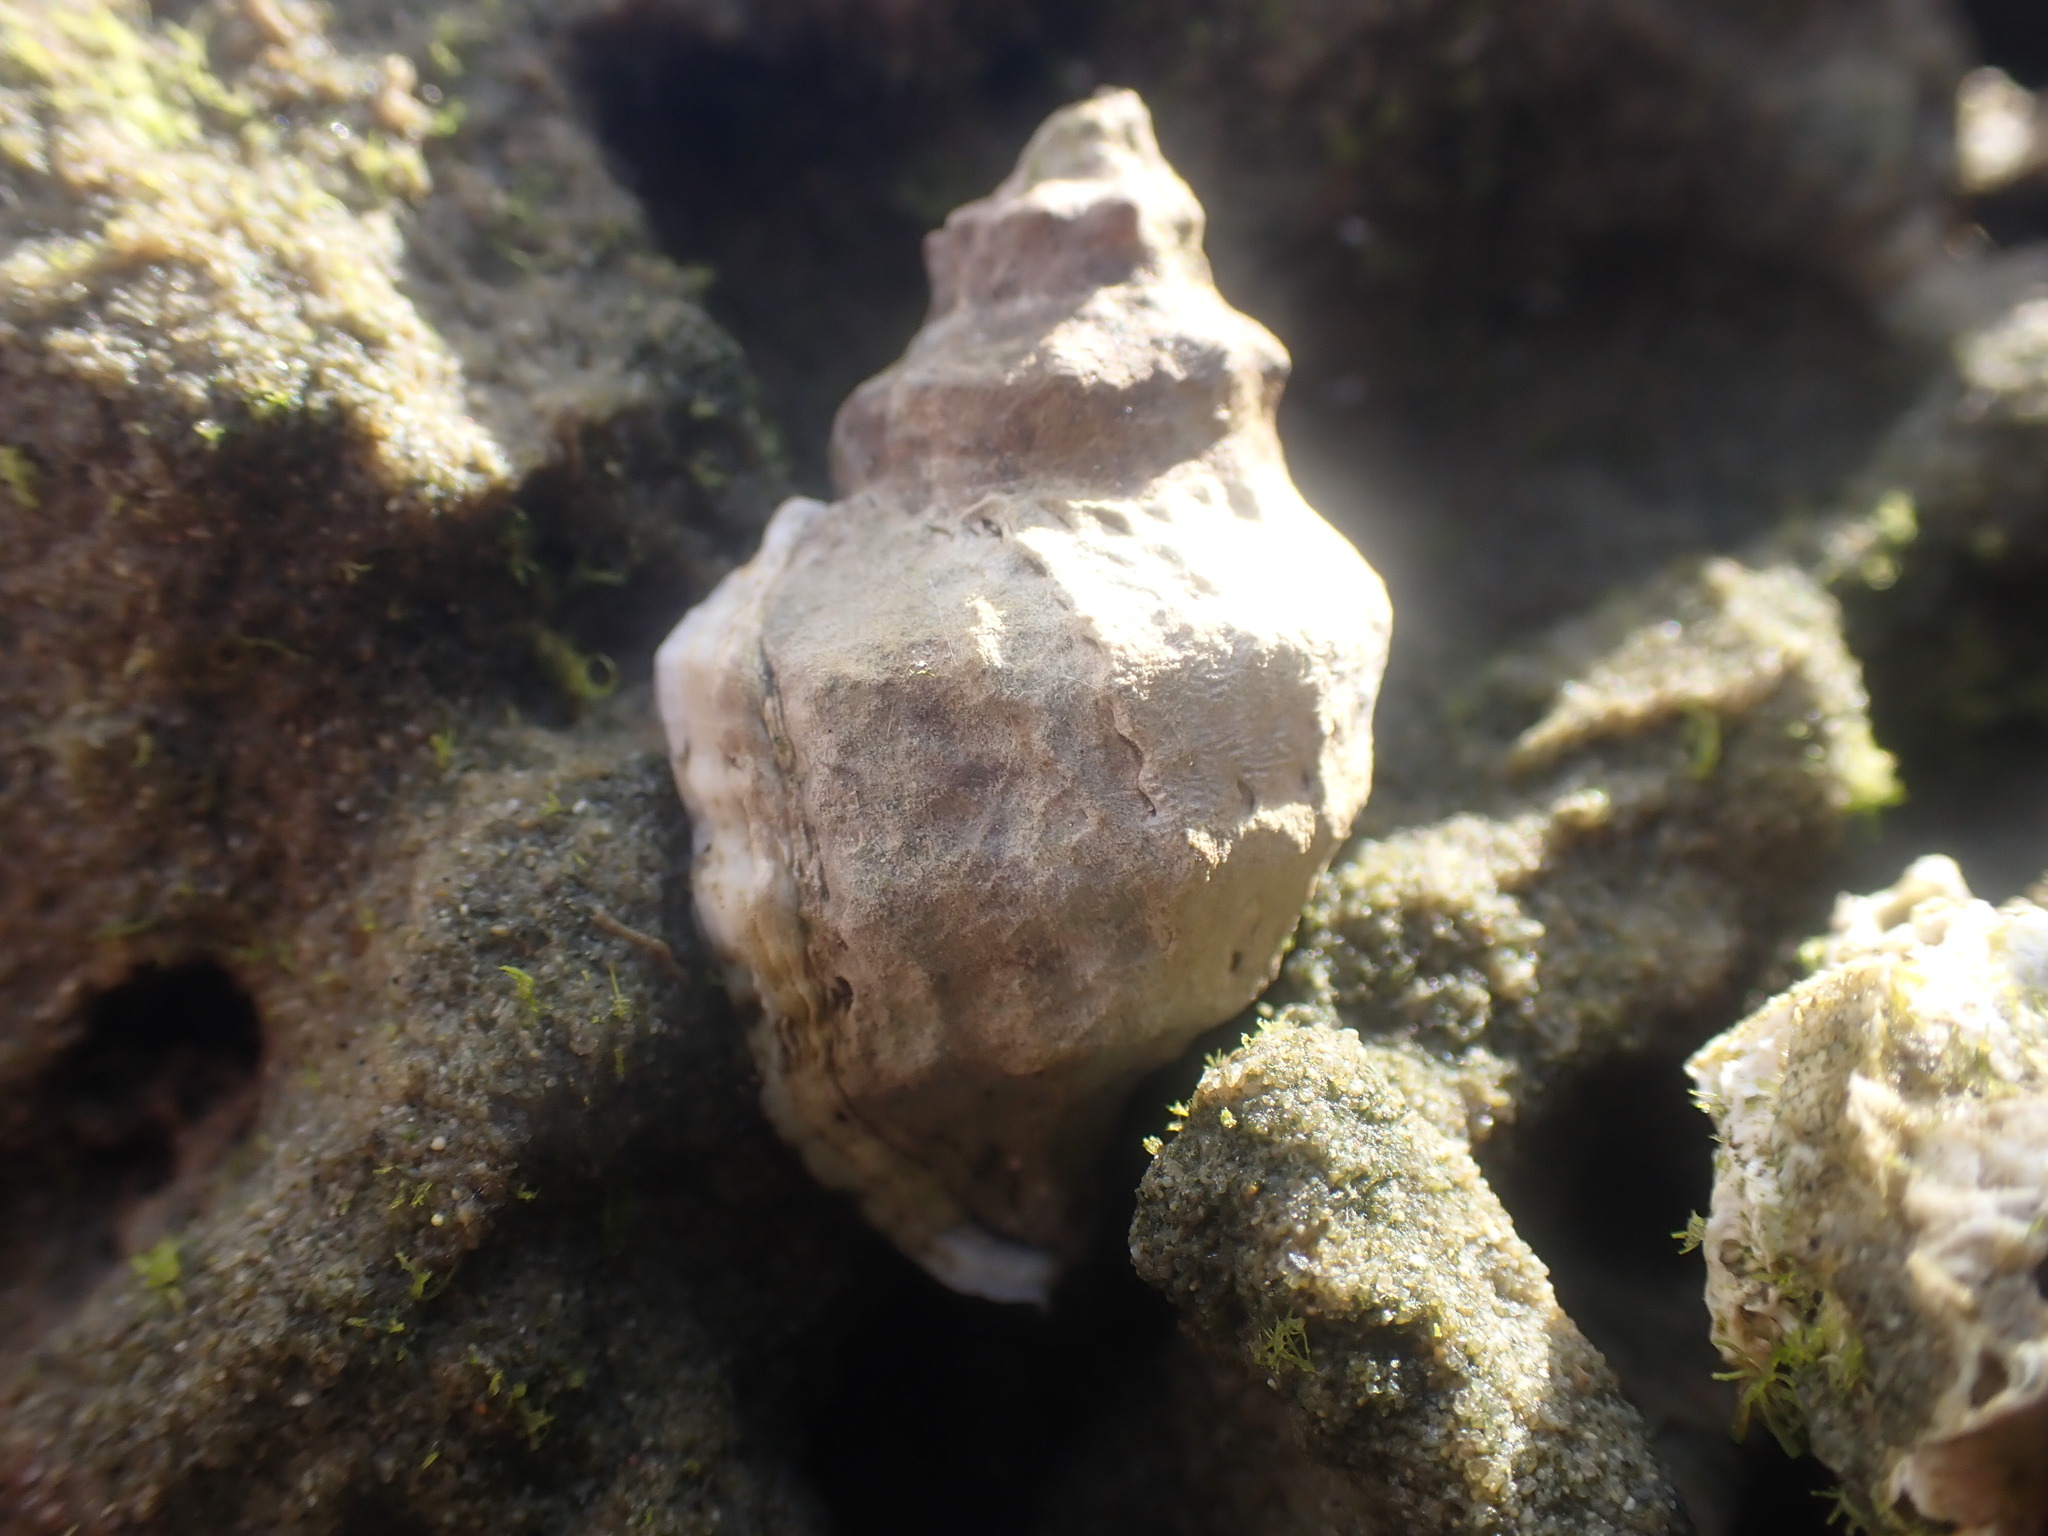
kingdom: Animalia
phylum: Mollusca
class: Gastropoda
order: Neogastropoda
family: Muricidae
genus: Haustrum
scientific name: Haustrum scobina
